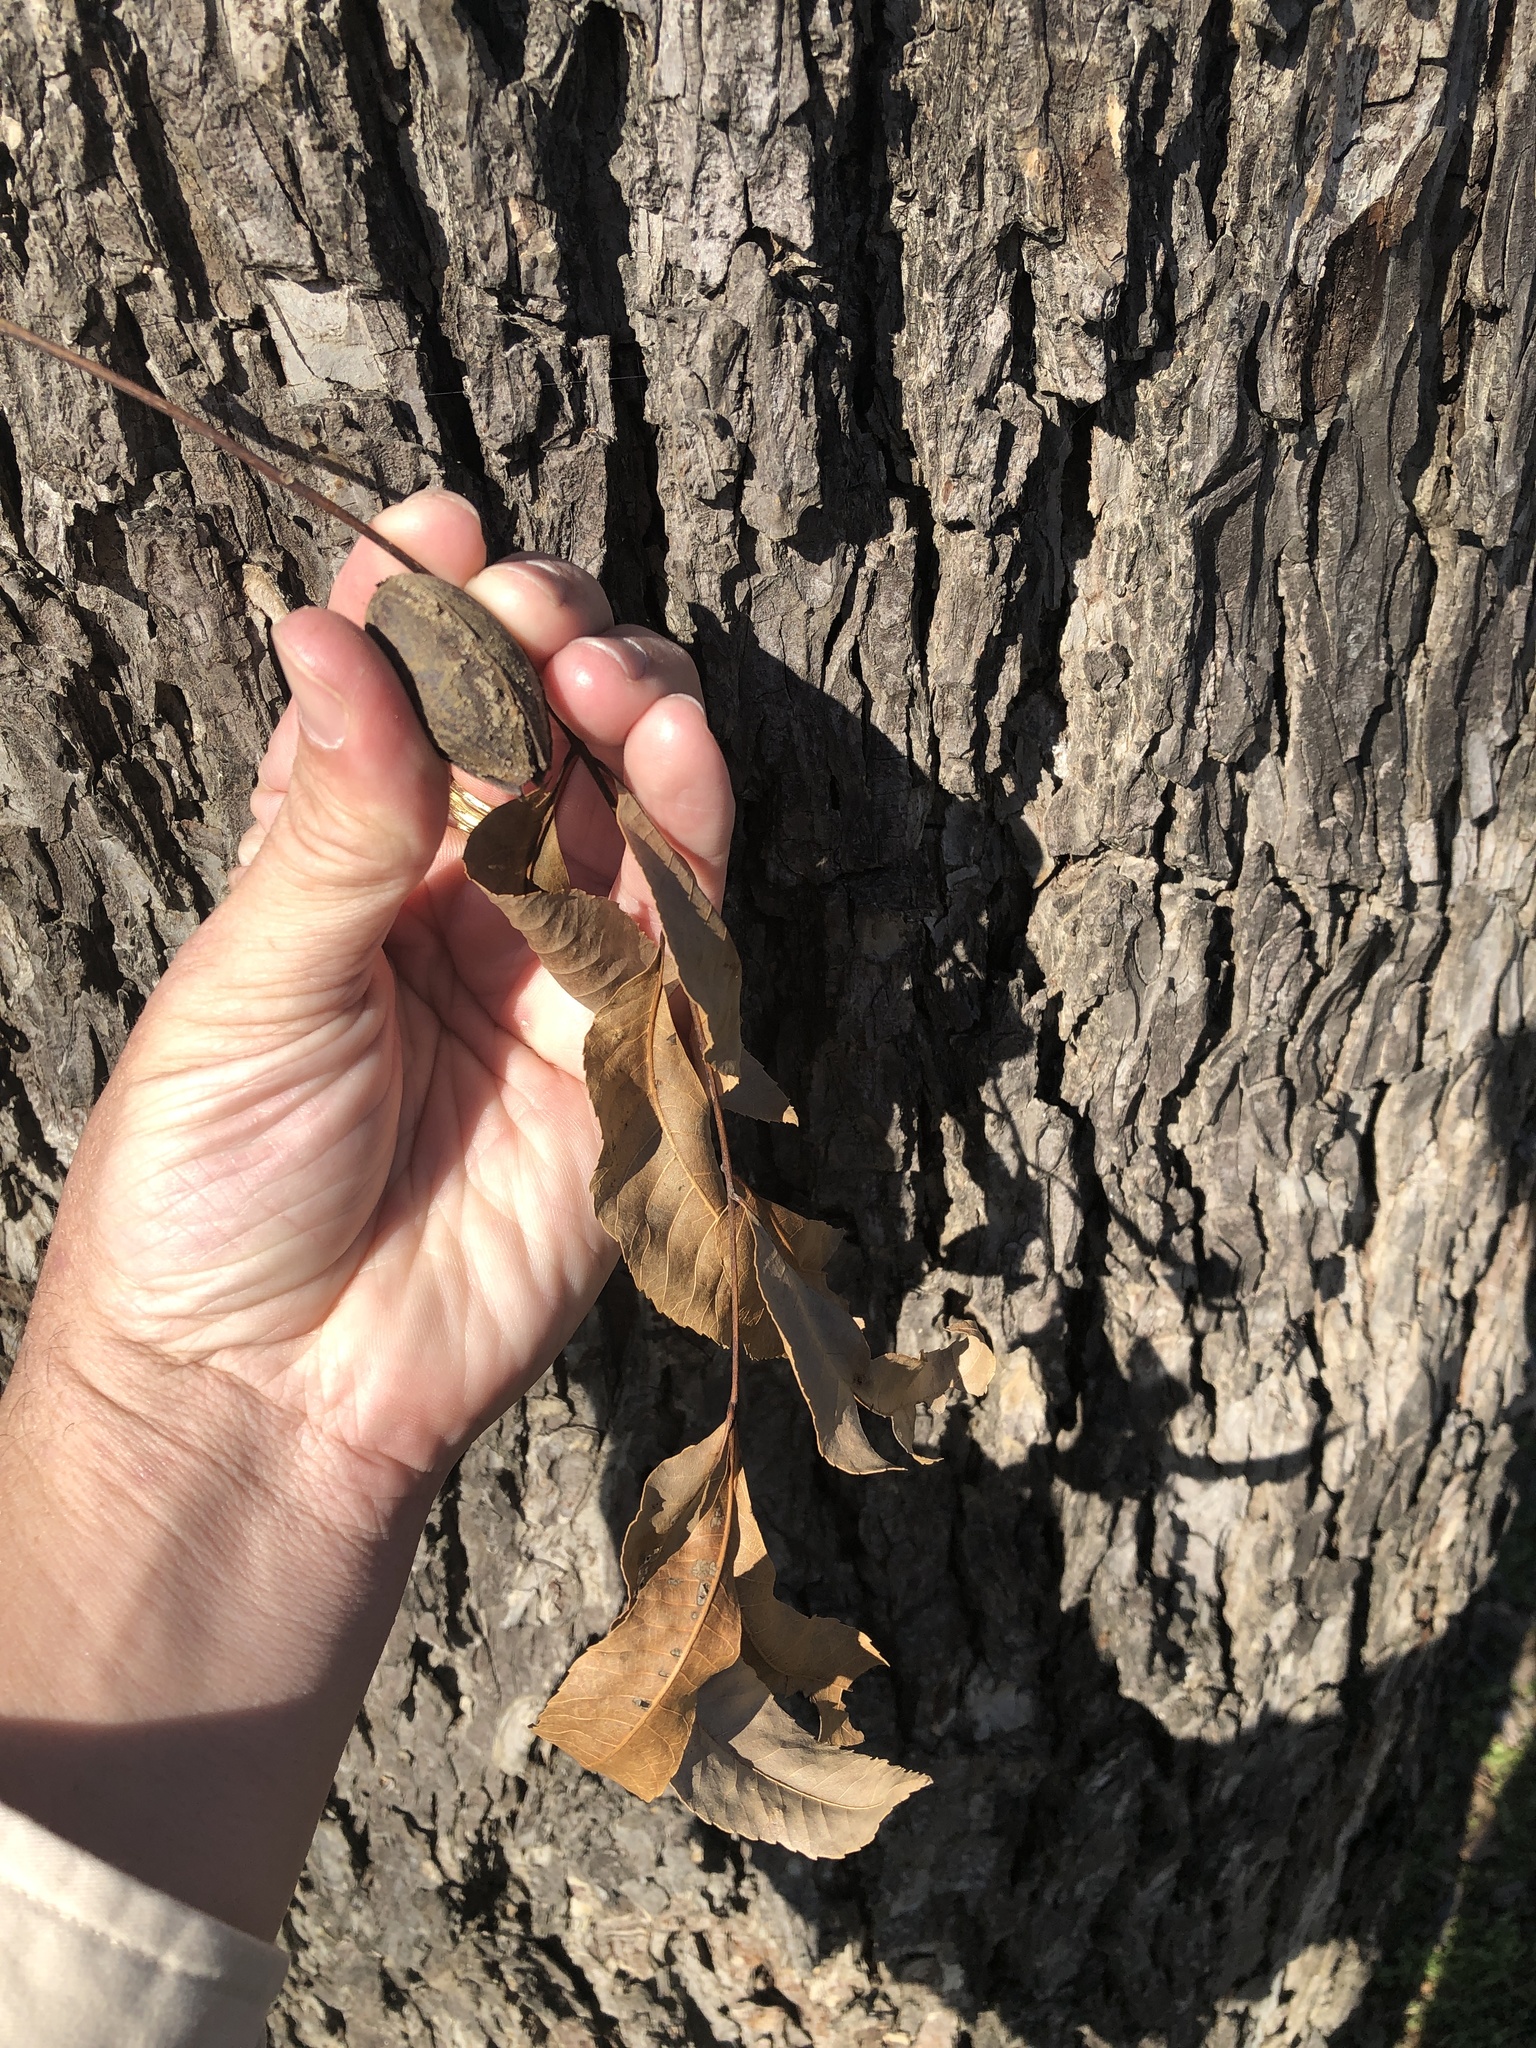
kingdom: Plantae
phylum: Tracheophyta
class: Magnoliopsida
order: Fagales
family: Juglandaceae
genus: Carya
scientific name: Carya illinoinensis
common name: Pecan
